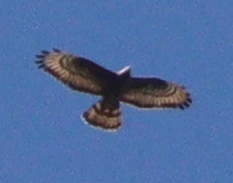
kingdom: Animalia
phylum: Chordata
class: Aves
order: Accipitriformes
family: Accipitridae
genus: Pernis
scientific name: Pernis apivorus
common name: European honey buzzard
